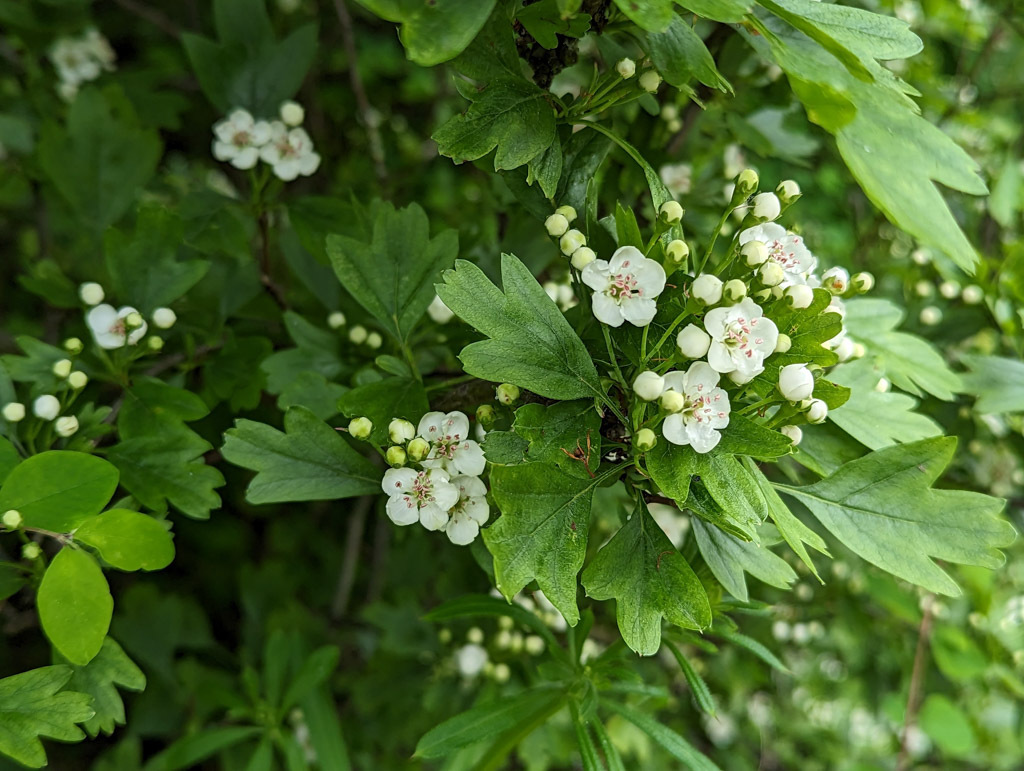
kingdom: Plantae
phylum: Tracheophyta
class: Magnoliopsida
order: Rosales
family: Rosaceae
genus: Crataegus
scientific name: Crataegus monogyna
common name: Hawthorn
